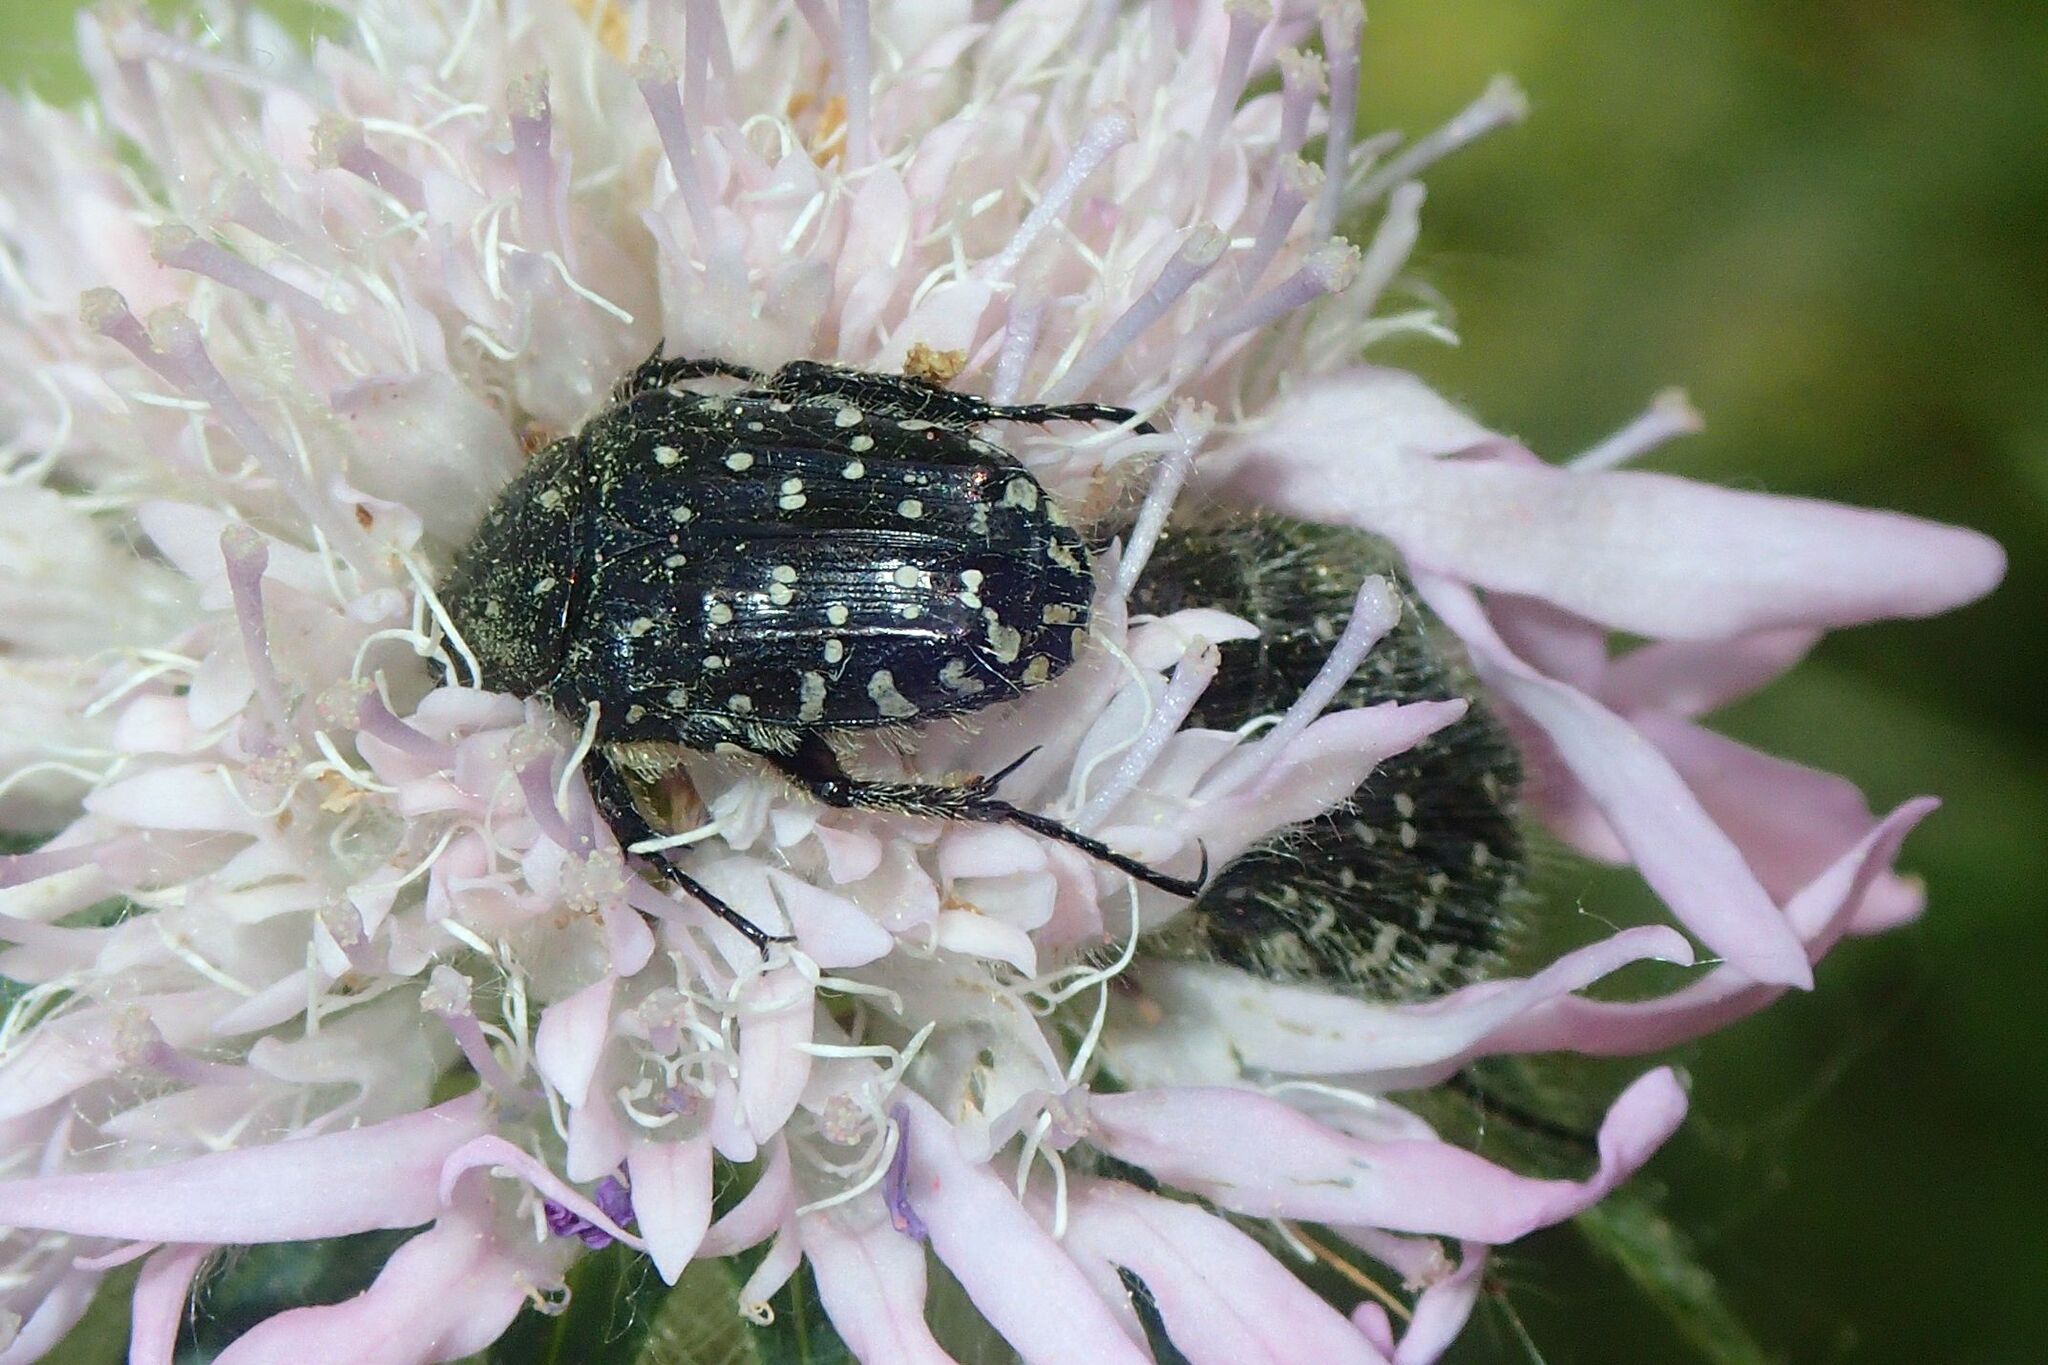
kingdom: Animalia
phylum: Arthropoda
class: Insecta
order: Coleoptera
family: Scarabaeidae
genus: Oxythyrea
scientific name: Oxythyrea funesta
